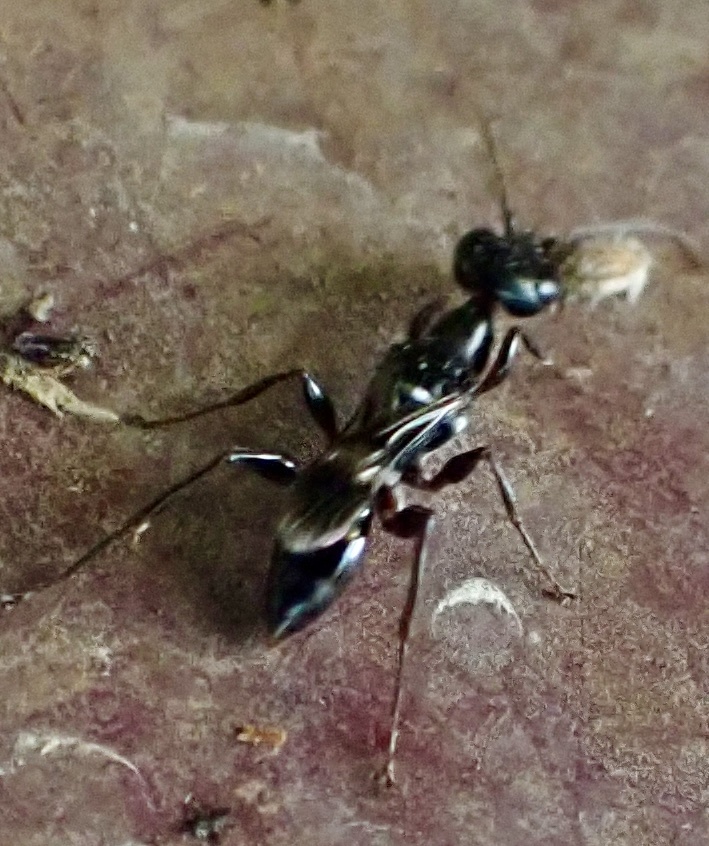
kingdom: Animalia
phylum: Arthropoda
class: Insecta
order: Hymenoptera
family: Ampulicidae
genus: Ampulex
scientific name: Ampulex canaliculata
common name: Cockroach wasp
